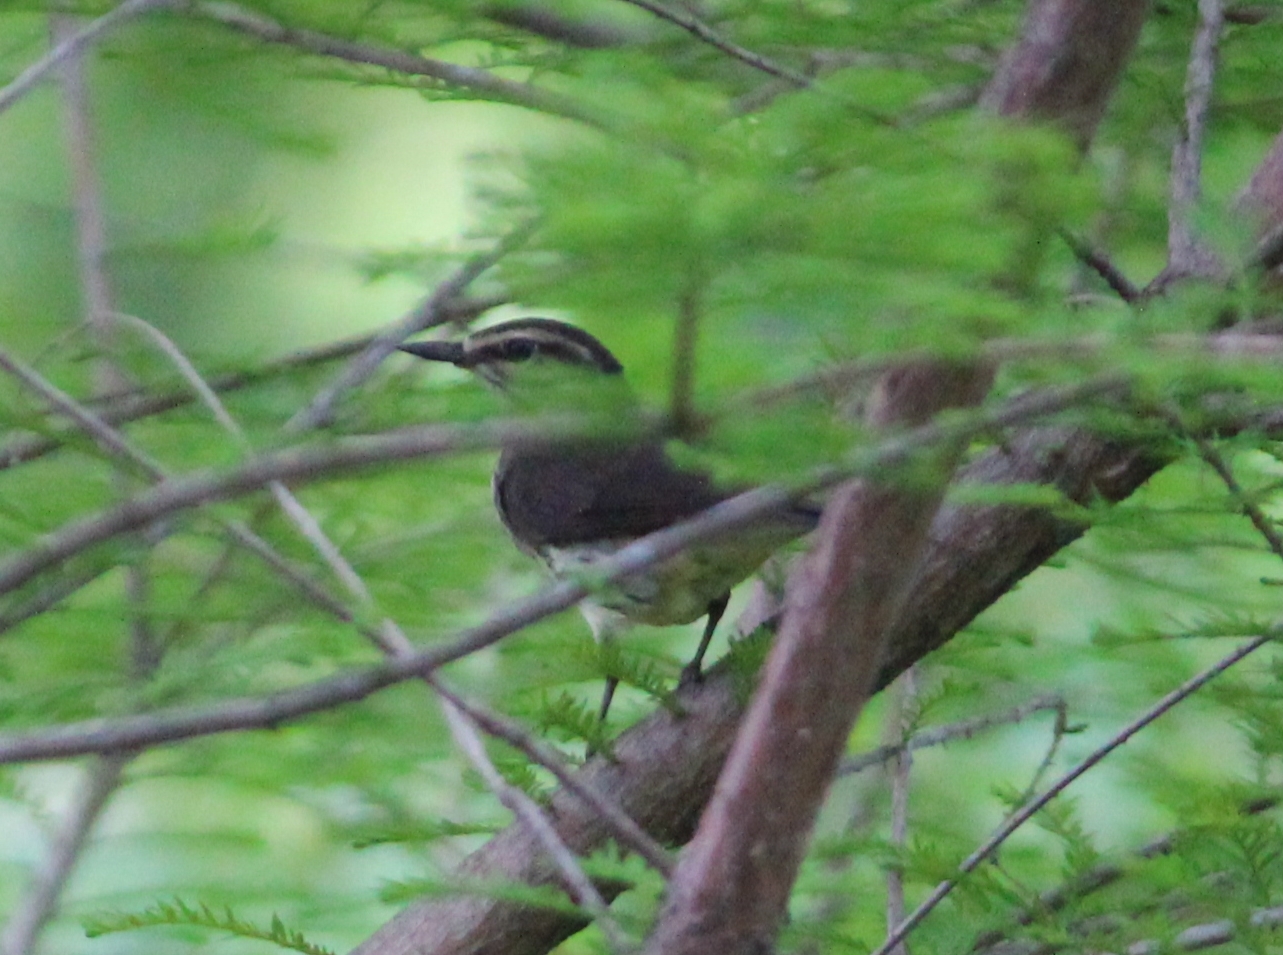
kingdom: Animalia
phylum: Chordata
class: Aves
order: Passeriformes
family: Parulidae
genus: Parkesia
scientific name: Parkesia noveboracensis
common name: Northern waterthrush
